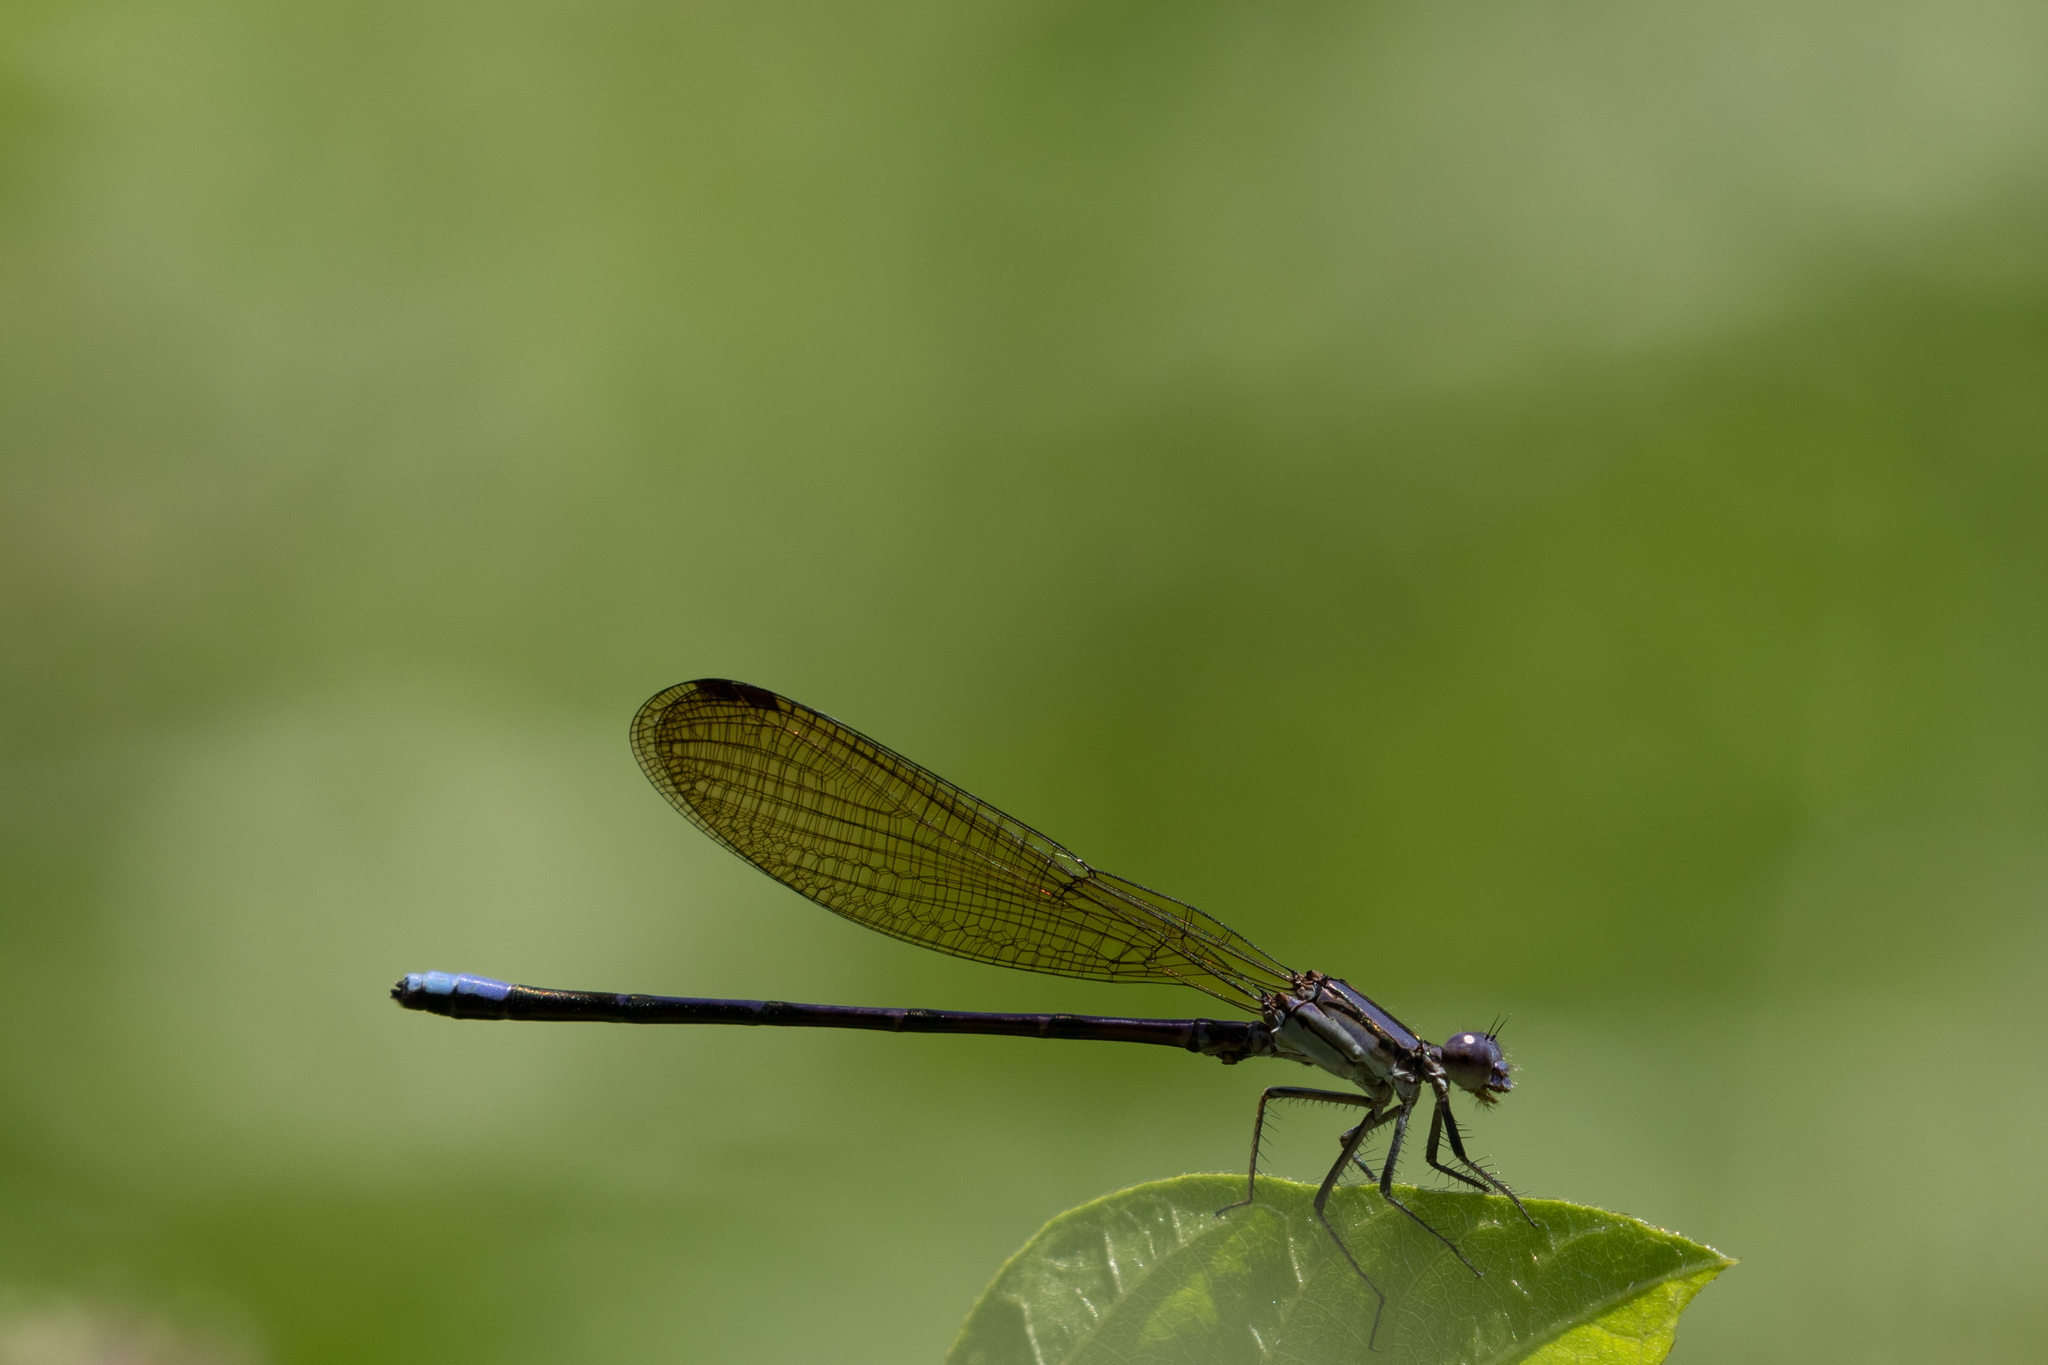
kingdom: Animalia
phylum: Arthropoda
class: Insecta
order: Odonata
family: Coenagrionidae
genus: Argia
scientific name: Argia fumipennis
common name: Variable dancer
